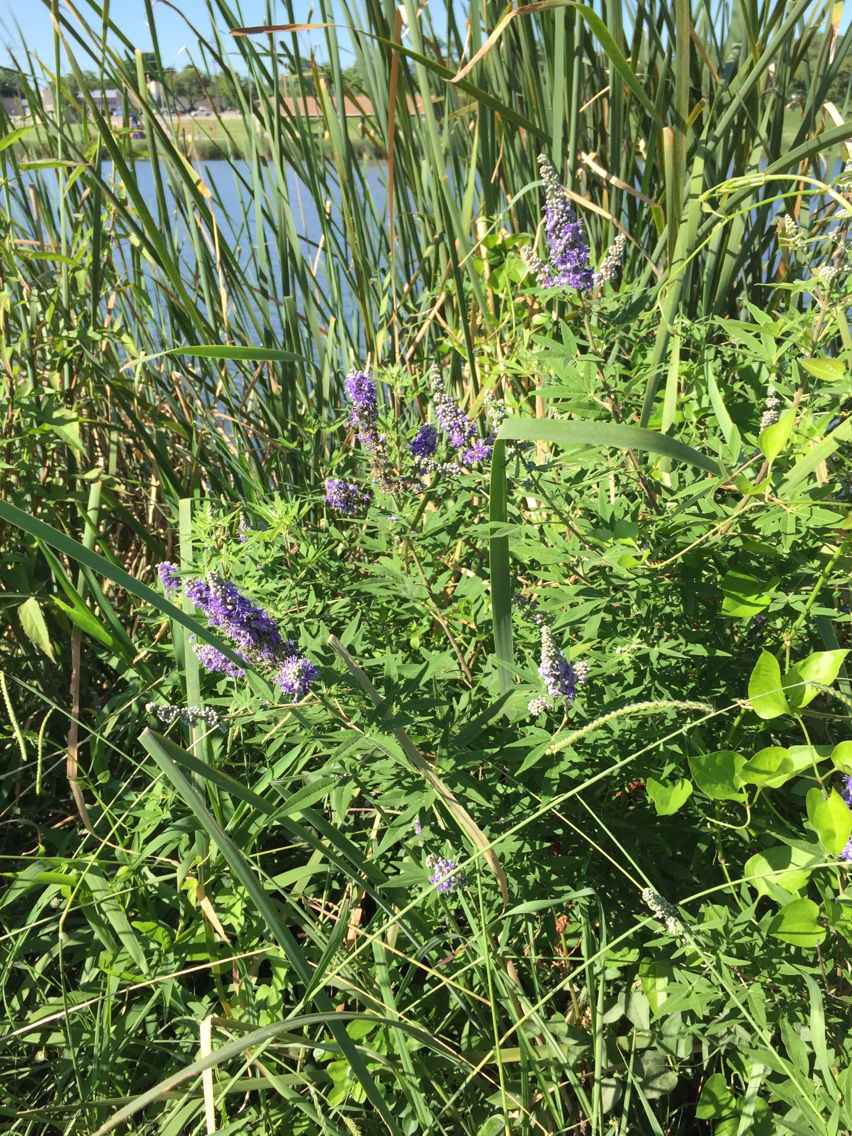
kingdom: Plantae
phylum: Tracheophyta
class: Magnoliopsida
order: Lamiales
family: Lamiaceae
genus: Vitex
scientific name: Vitex agnus-castus
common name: Chasteberry
